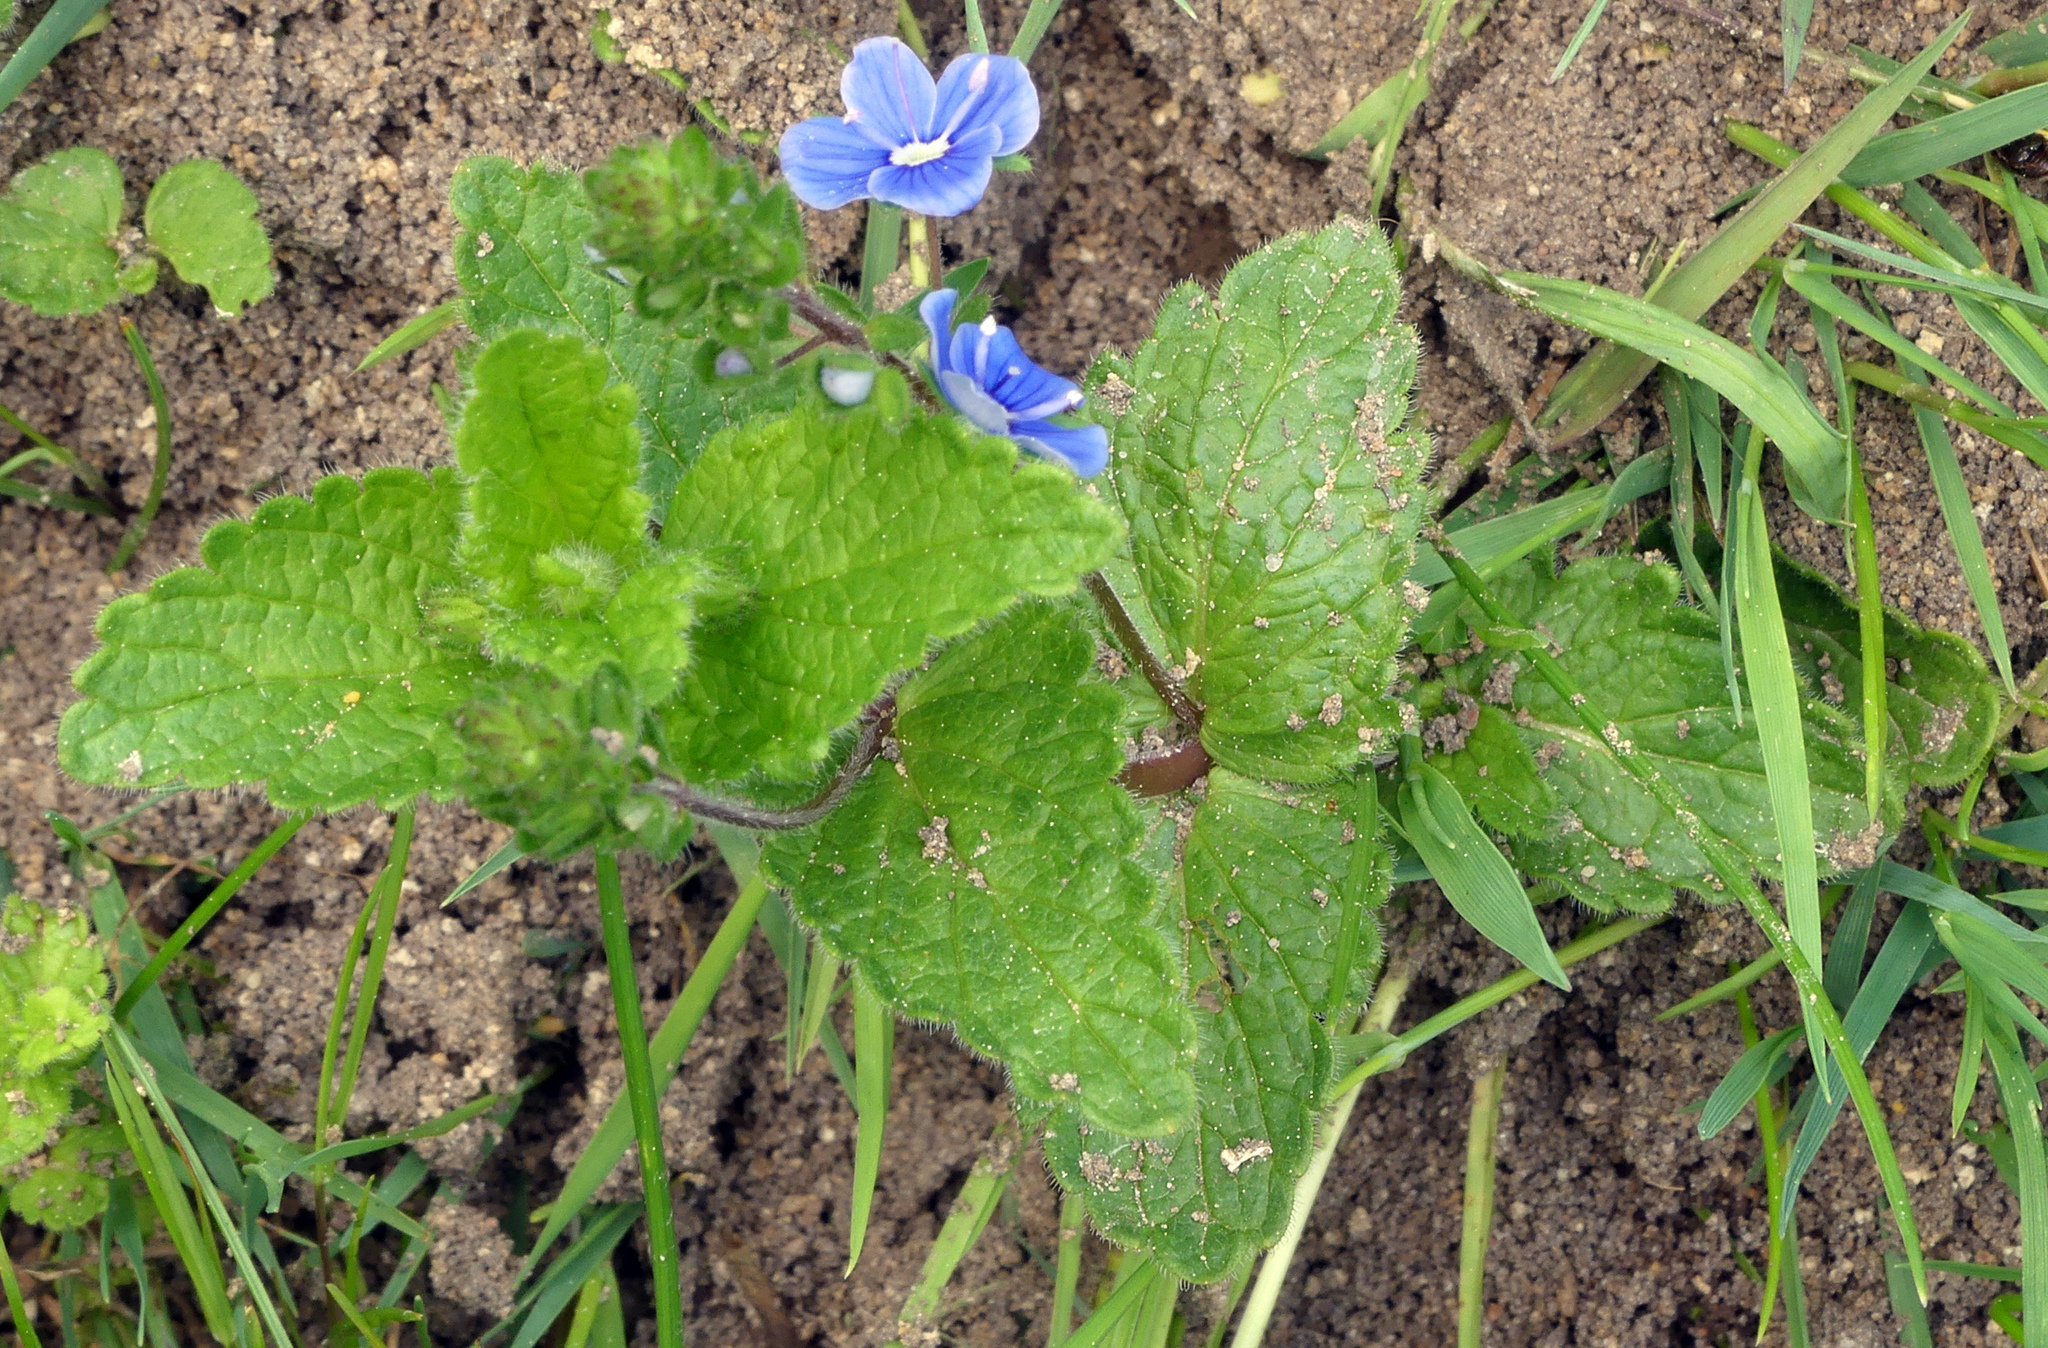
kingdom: Plantae
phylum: Tracheophyta
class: Magnoliopsida
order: Lamiales
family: Plantaginaceae
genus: Veronica
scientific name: Veronica chamaedrys
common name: Germander speedwell
